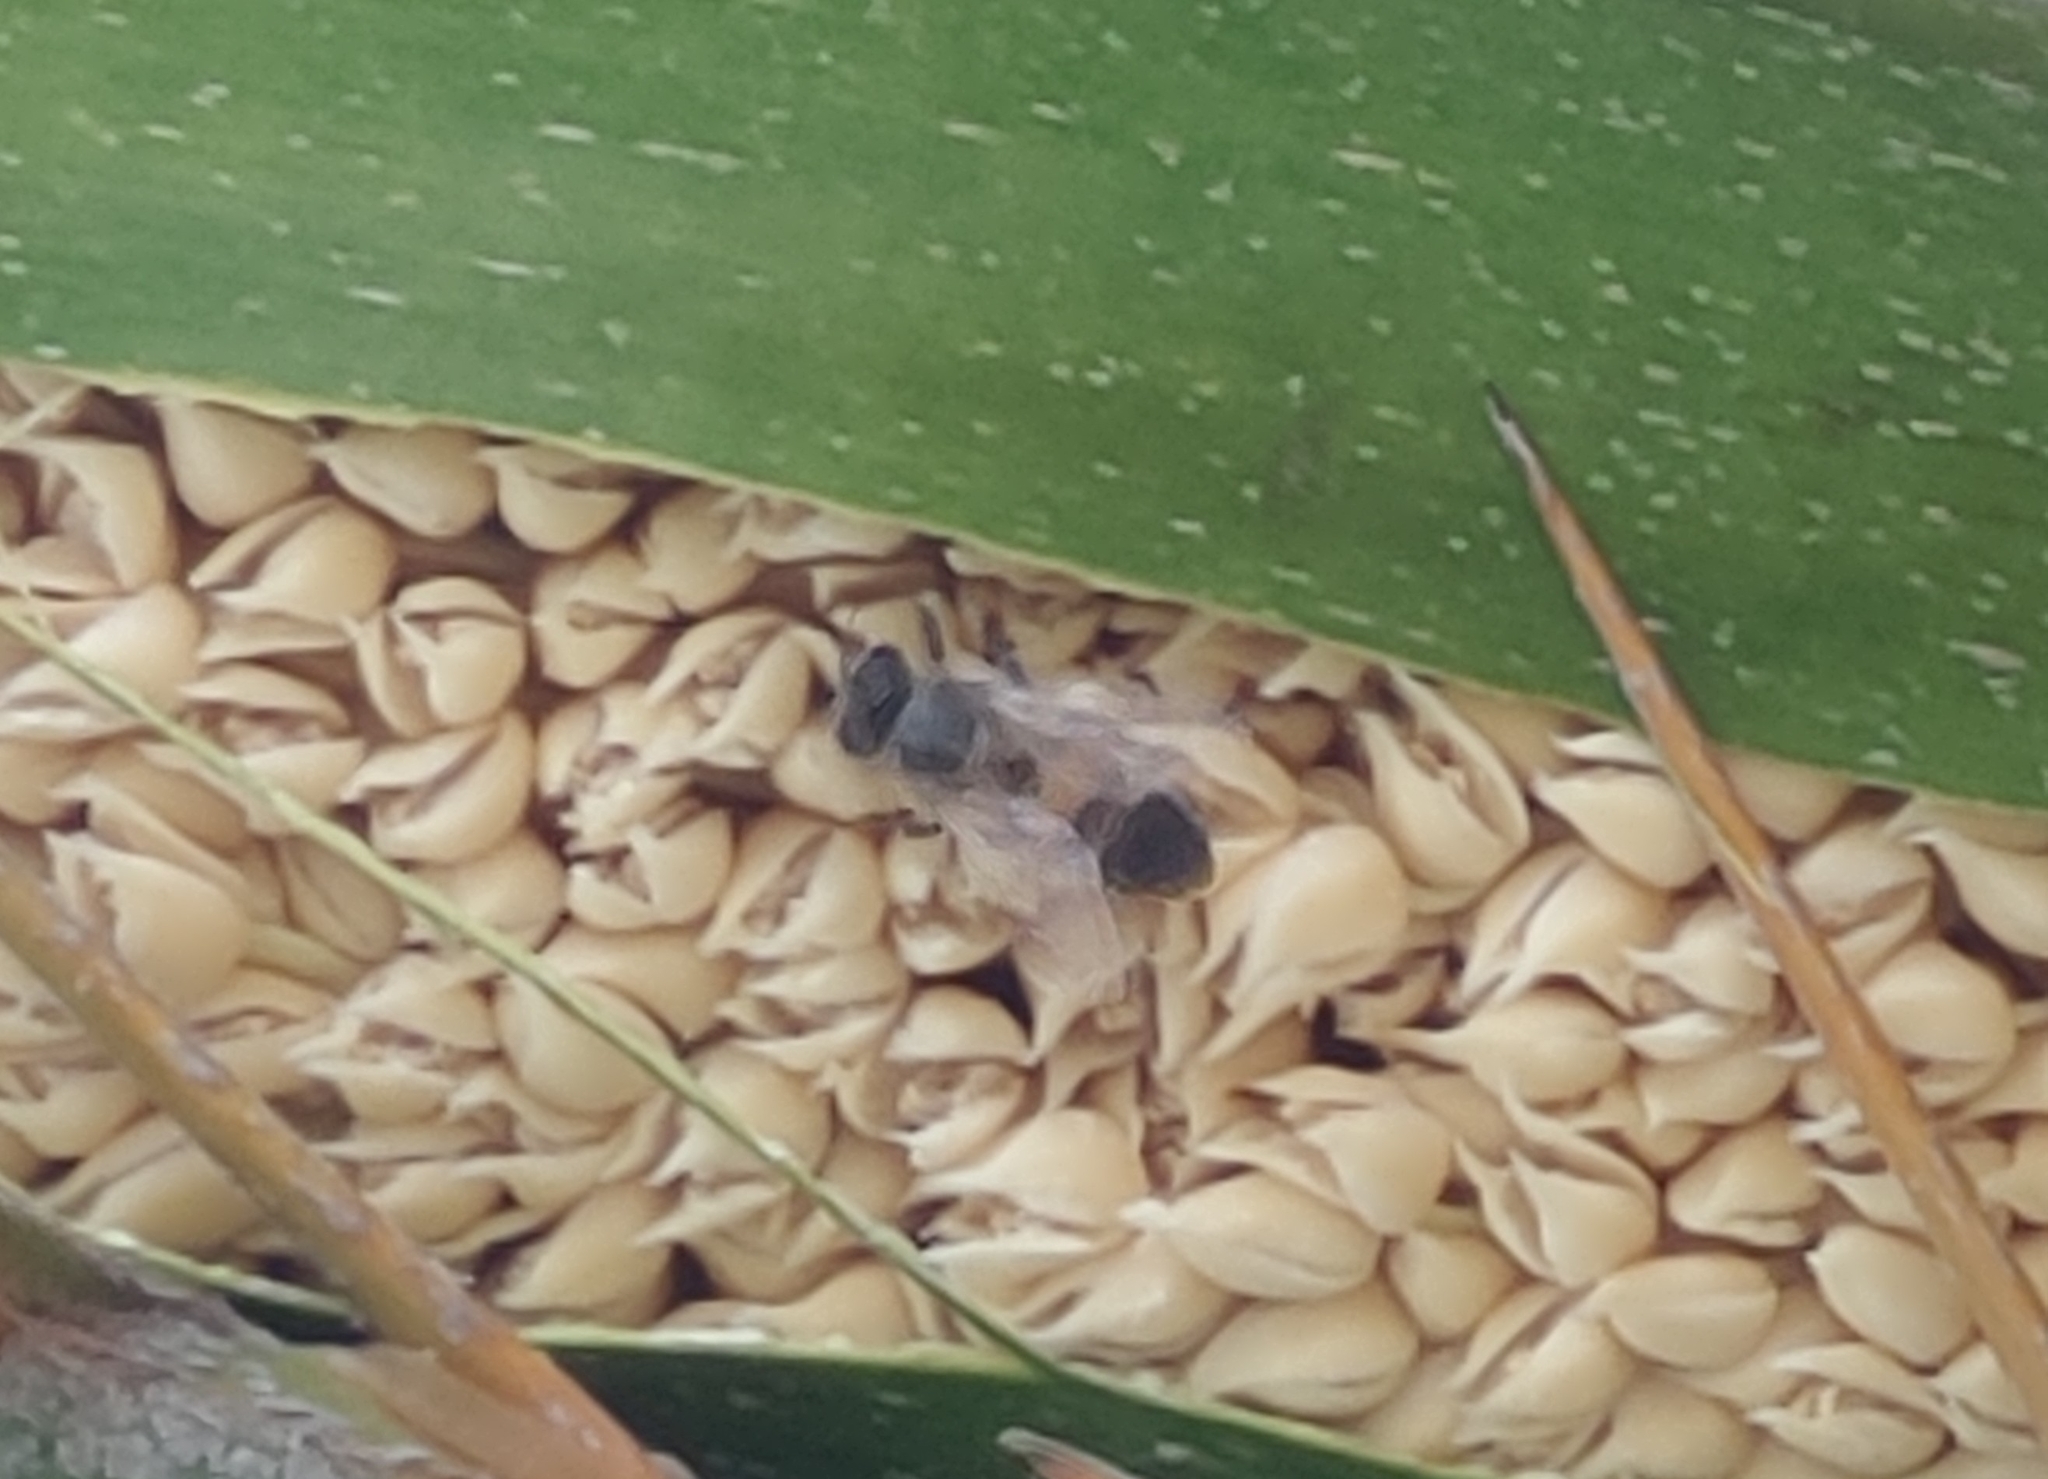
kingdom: Animalia
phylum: Arthropoda
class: Insecta
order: Hymenoptera
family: Apidae
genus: Apis
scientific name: Apis mellifera
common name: Honey bee
